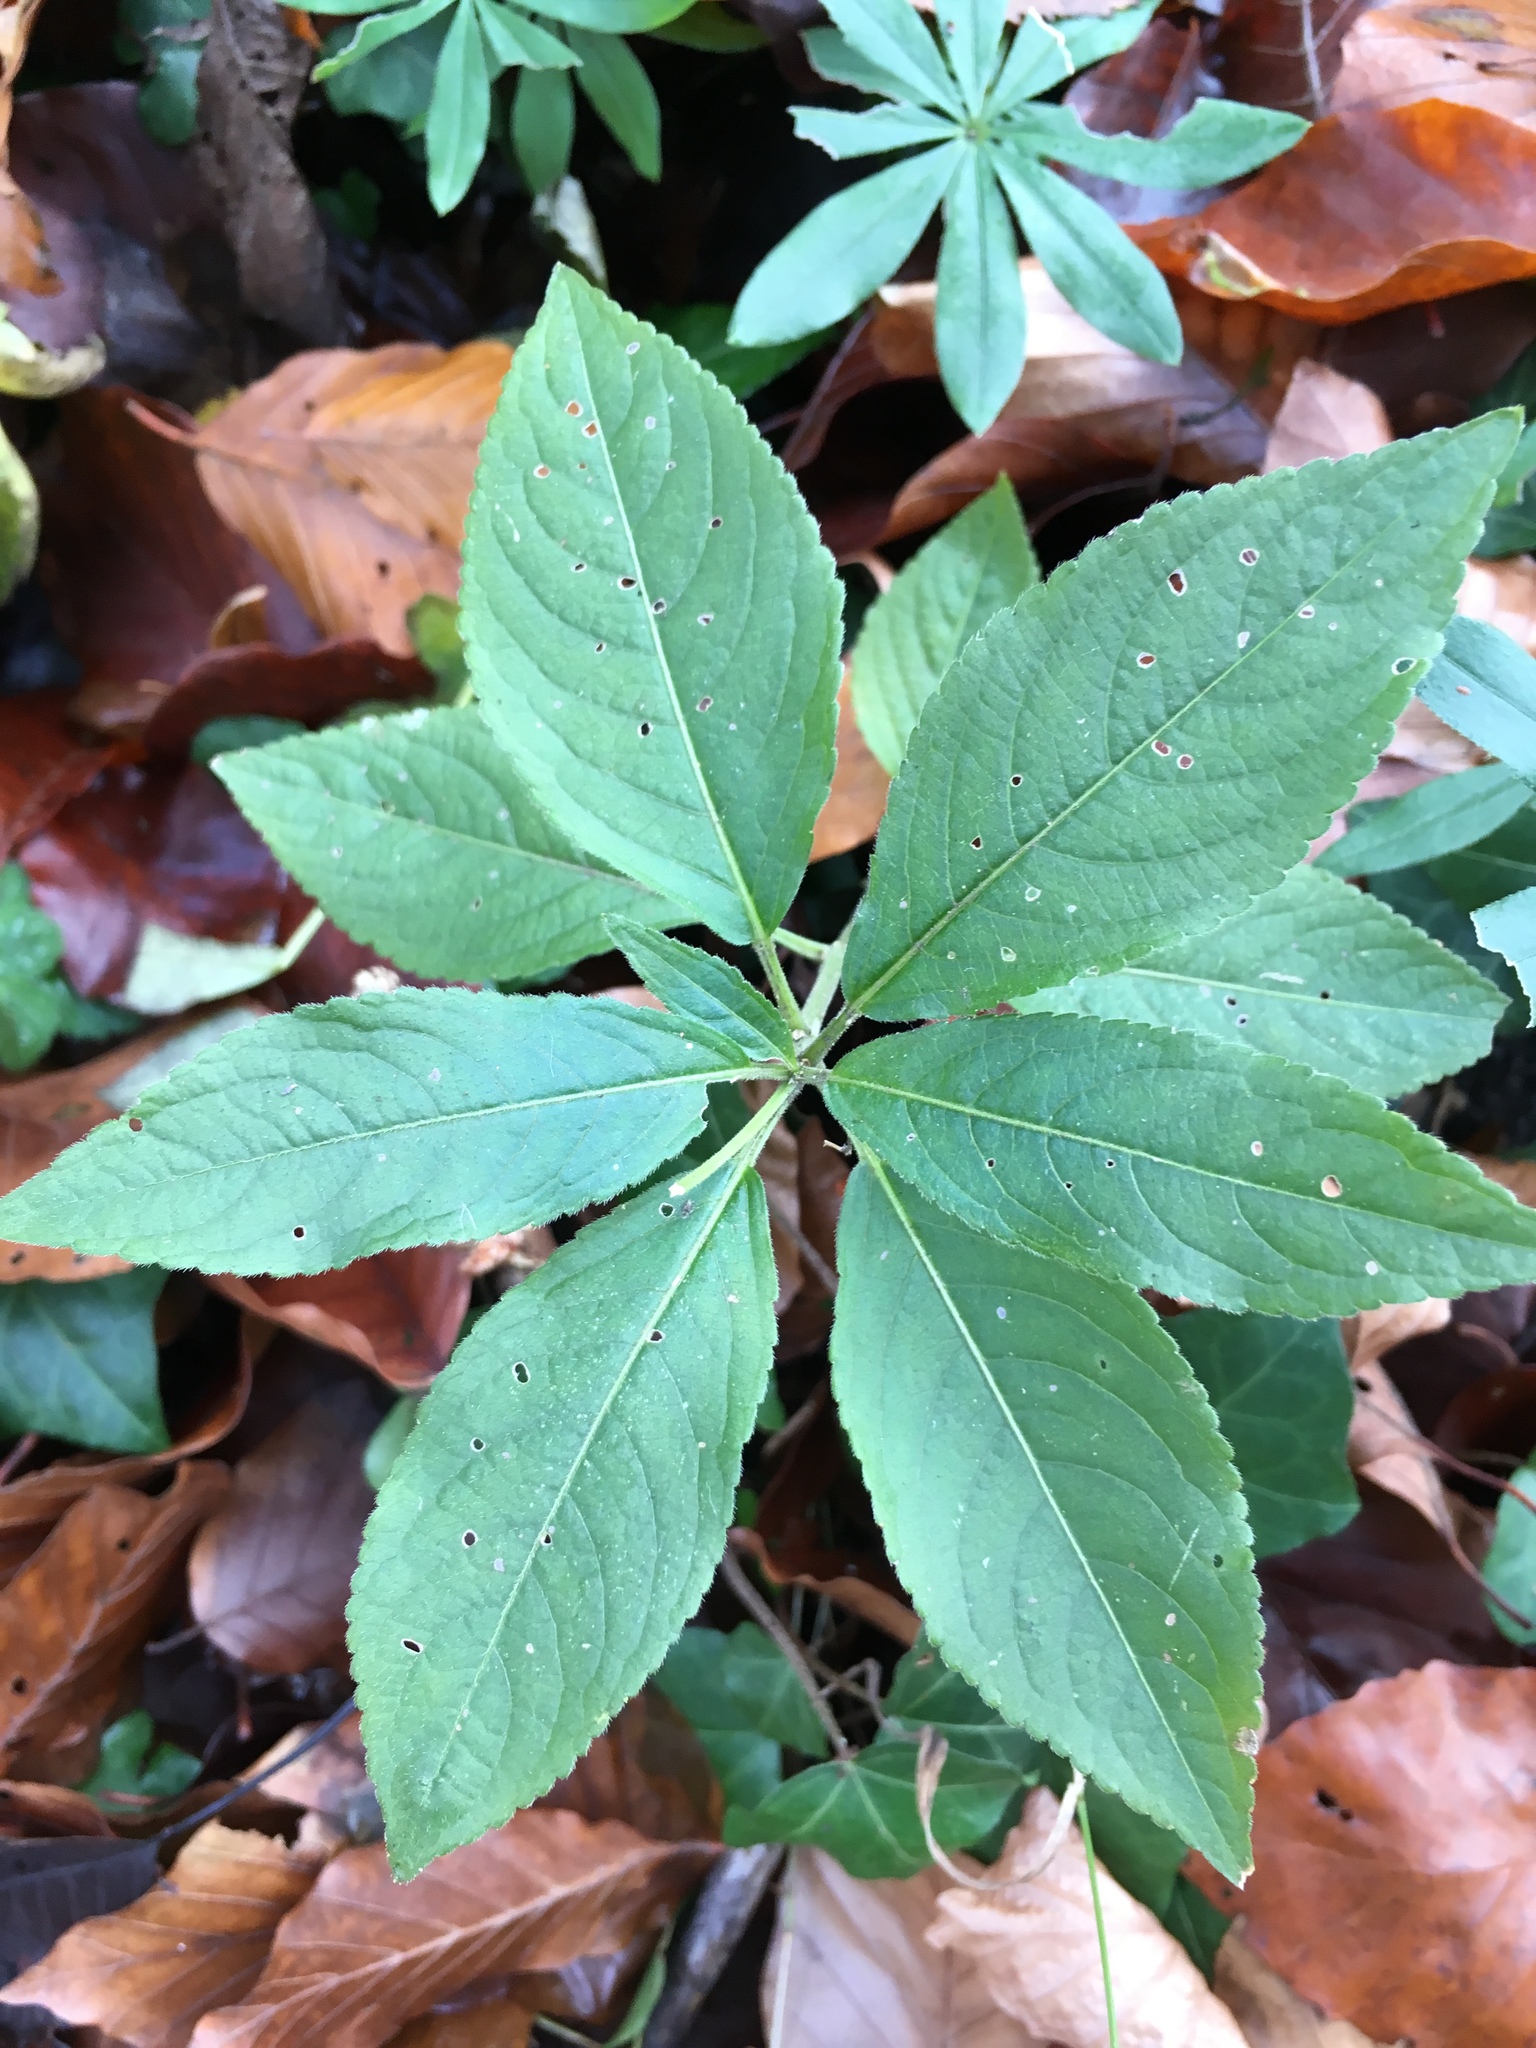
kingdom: Plantae
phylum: Tracheophyta
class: Magnoliopsida
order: Malpighiales
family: Euphorbiaceae
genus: Mercurialis
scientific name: Mercurialis perennis
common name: Dog mercury
